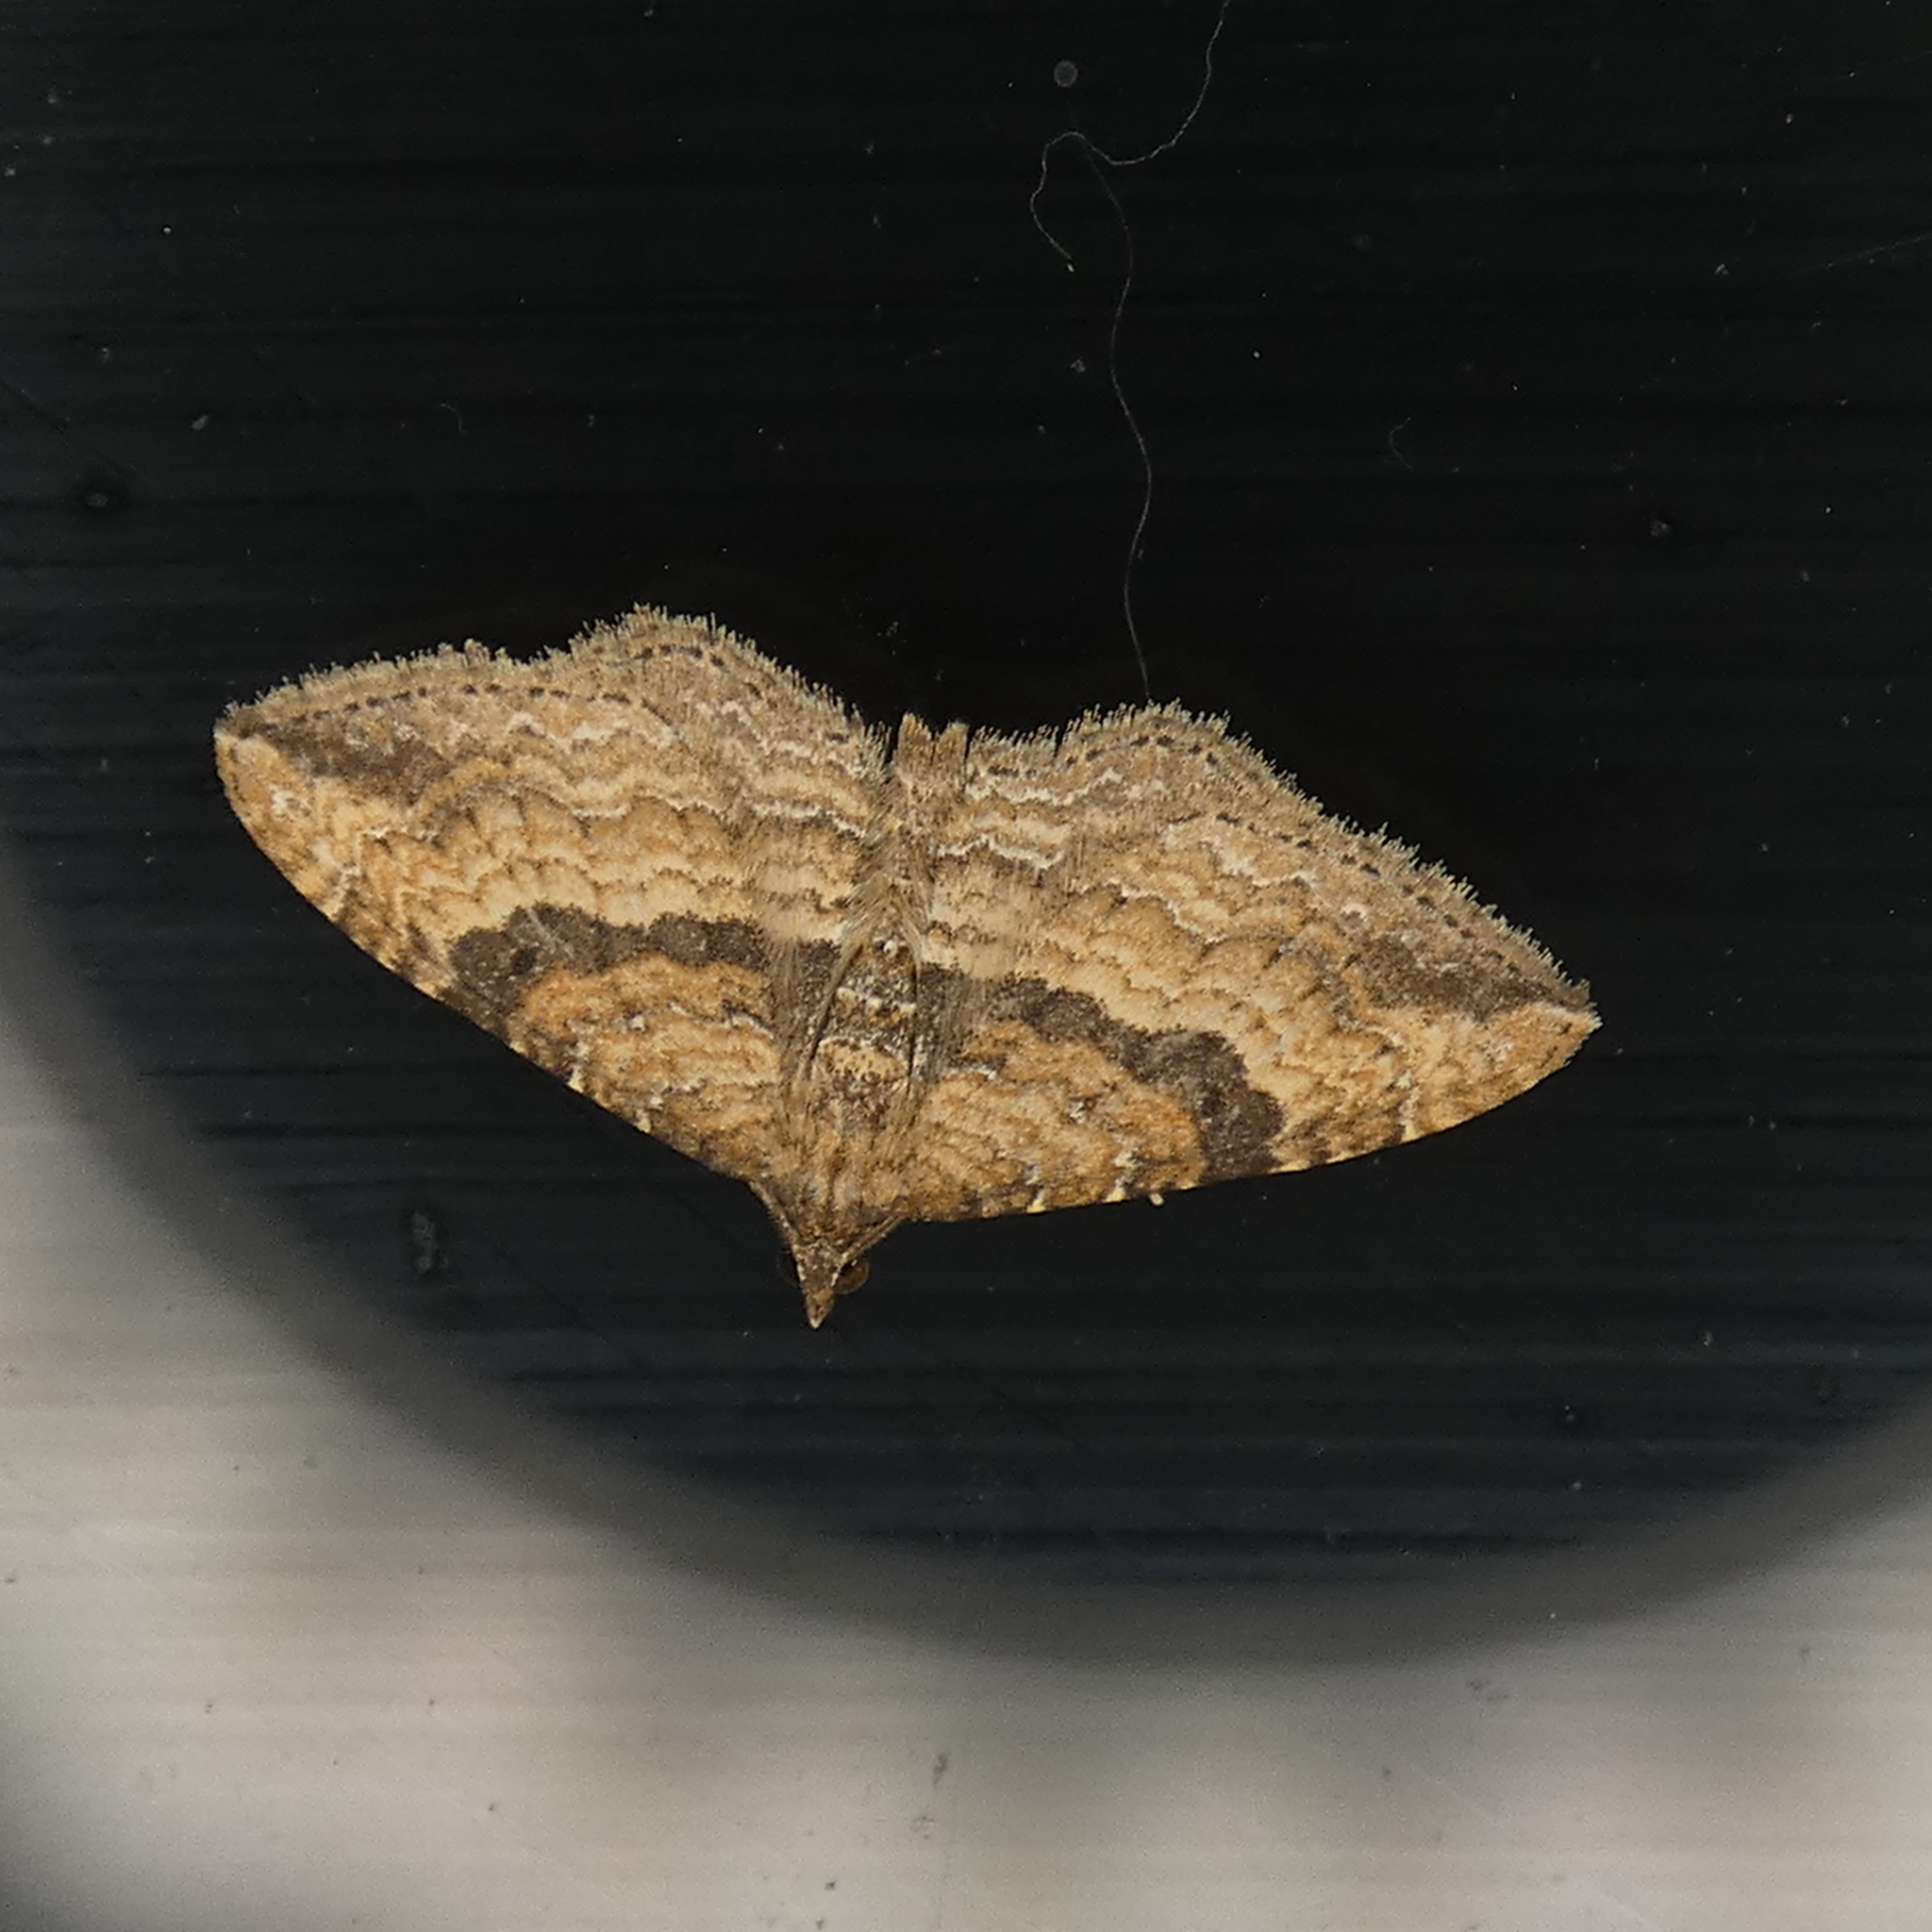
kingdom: Animalia
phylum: Arthropoda
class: Insecta
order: Lepidoptera
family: Geometridae
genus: Orthonama
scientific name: Orthonama obstipata
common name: The gem
